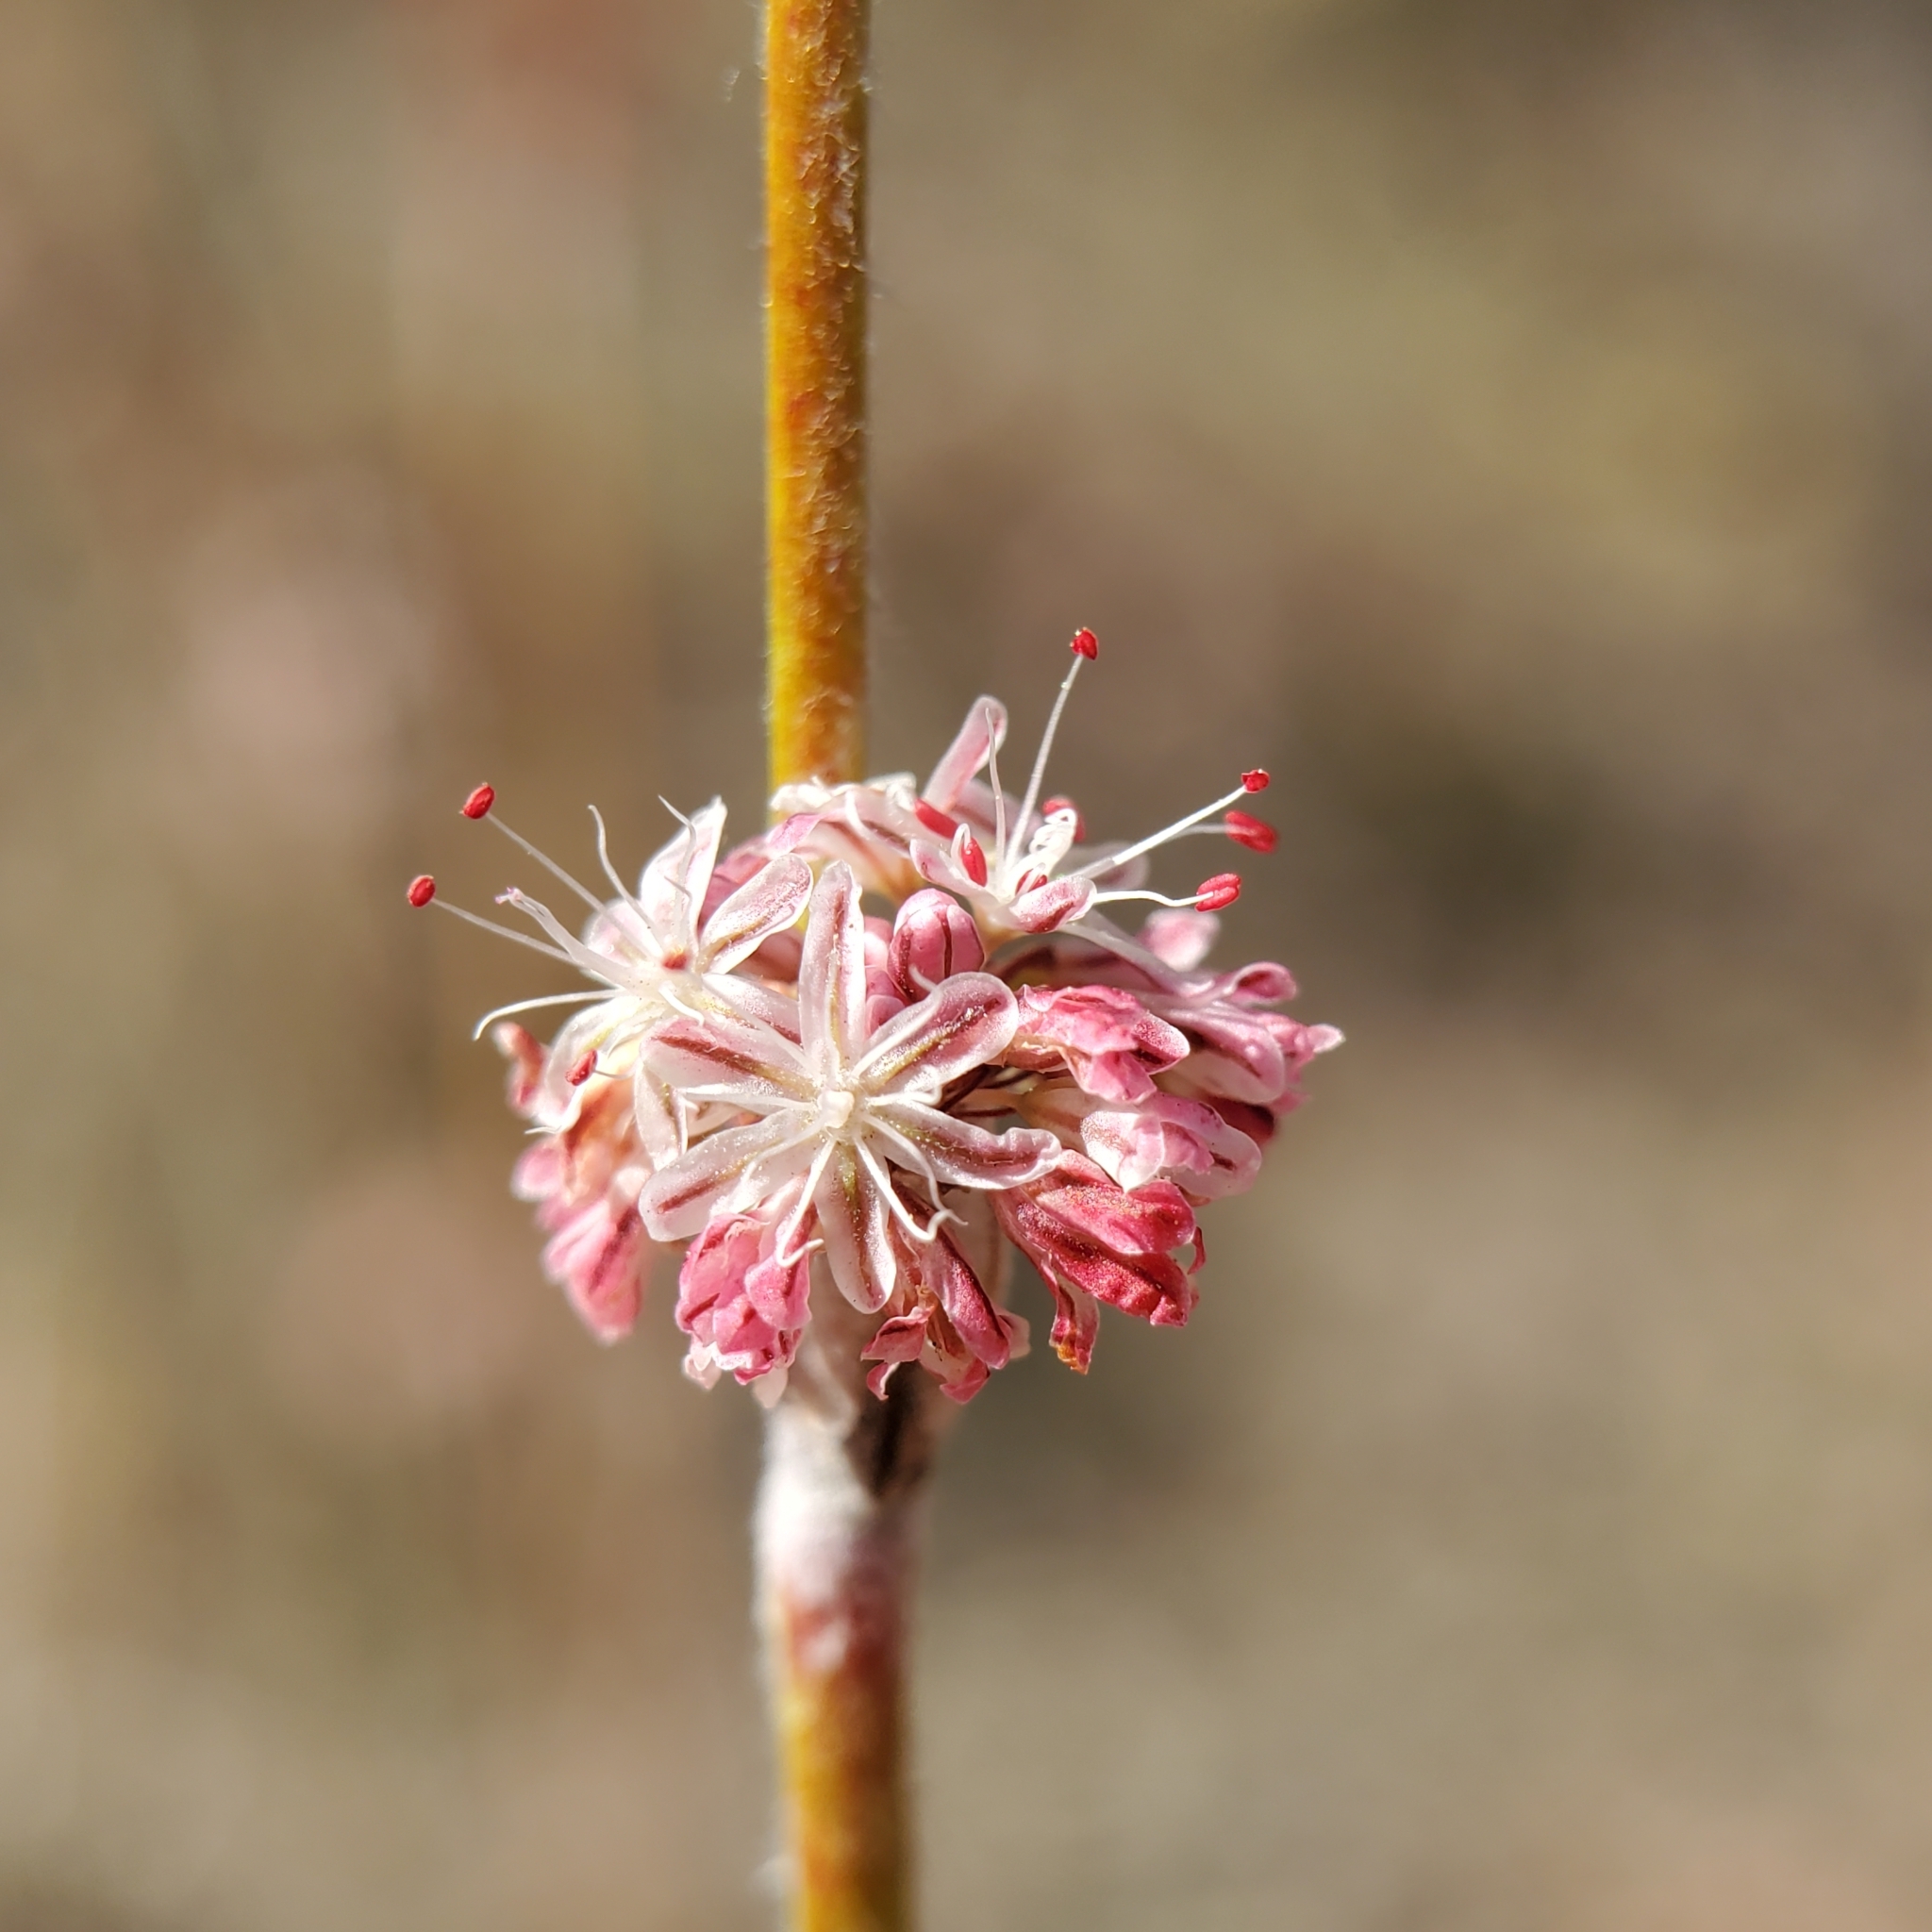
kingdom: Plantae
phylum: Tracheophyta
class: Magnoliopsida
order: Caryophyllales
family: Polygonaceae
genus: Eriogonum
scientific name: Eriogonum elongatum
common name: Long-stem wild buckwheat
